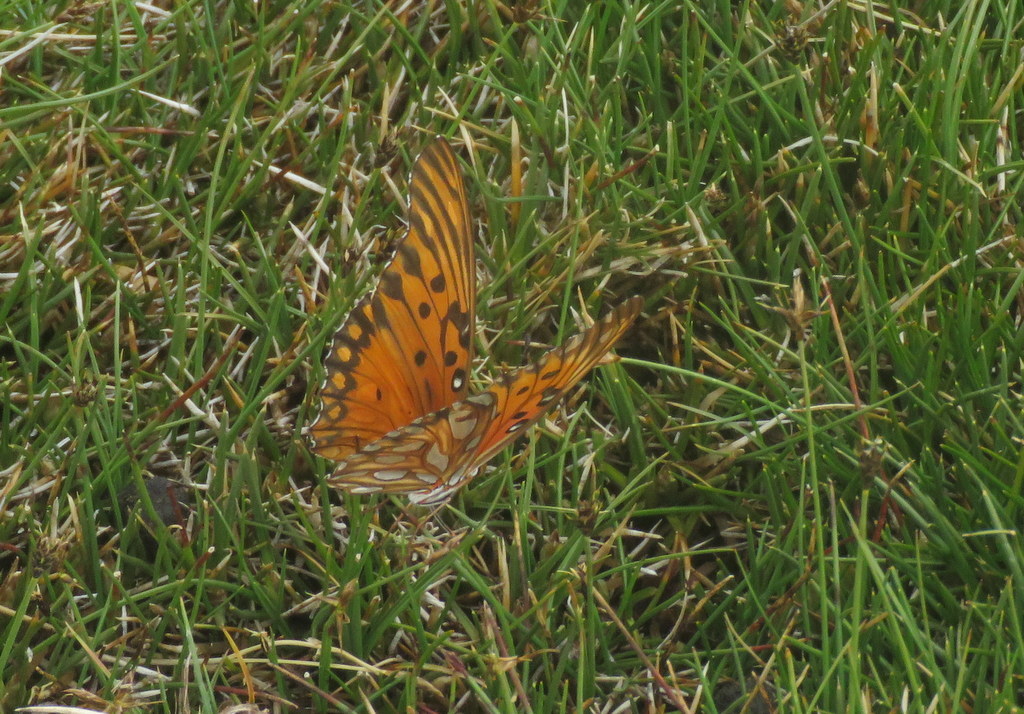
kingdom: Animalia
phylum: Arthropoda
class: Insecta
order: Lepidoptera
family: Nymphalidae
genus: Dione
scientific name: Dione vanillae
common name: Gulf fritillary
